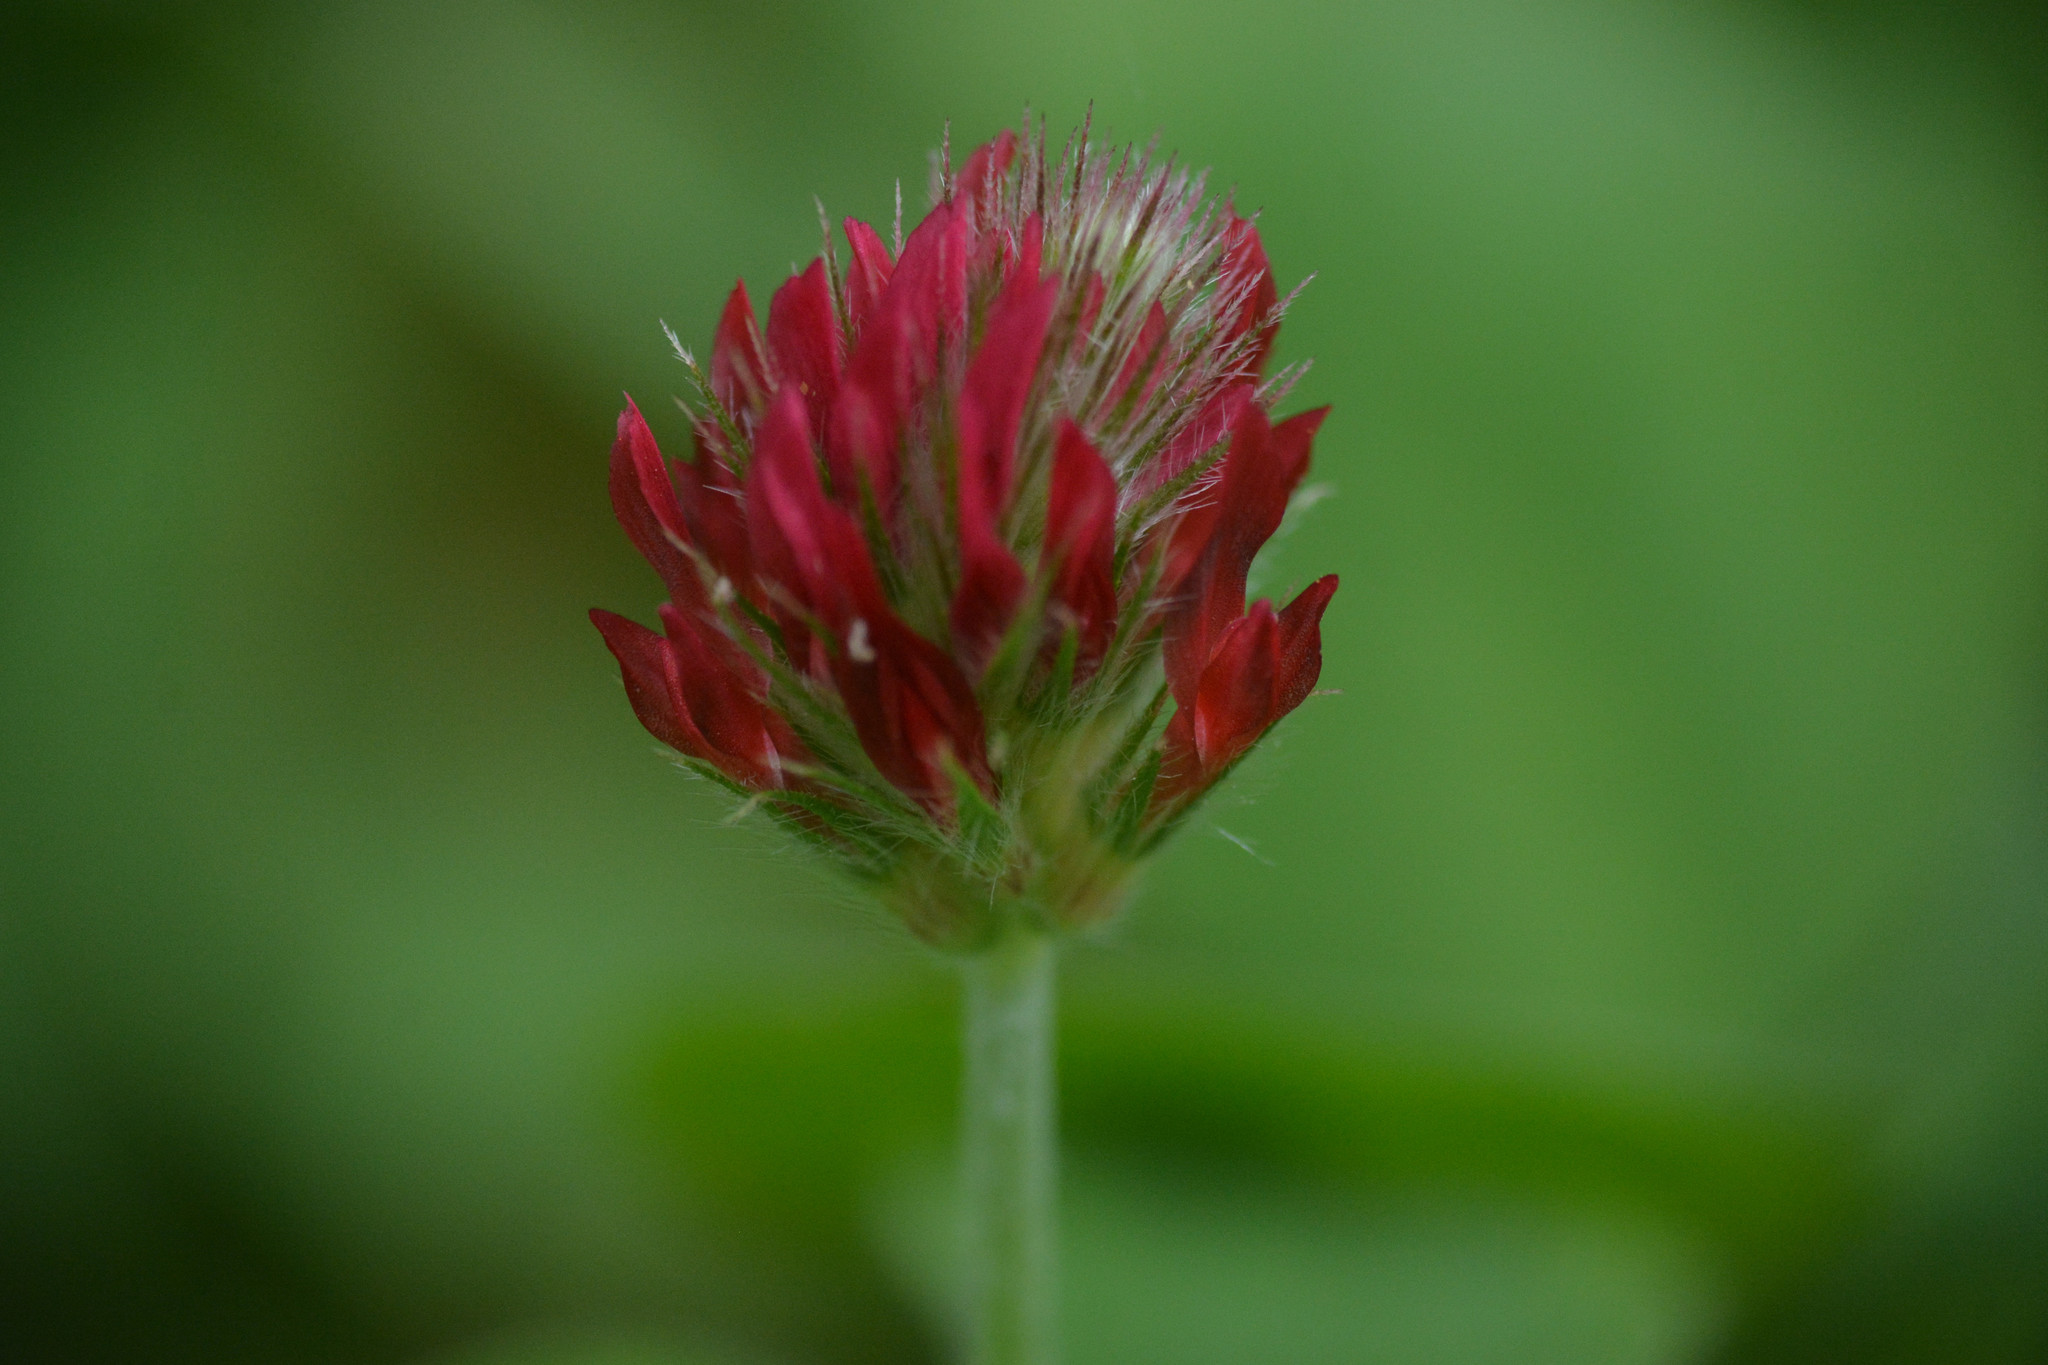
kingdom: Plantae
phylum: Tracheophyta
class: Magnoliopsida
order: Fabales
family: Fabaceae
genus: Trifolium
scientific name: Trifolium incarnatum
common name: Crimson clover
